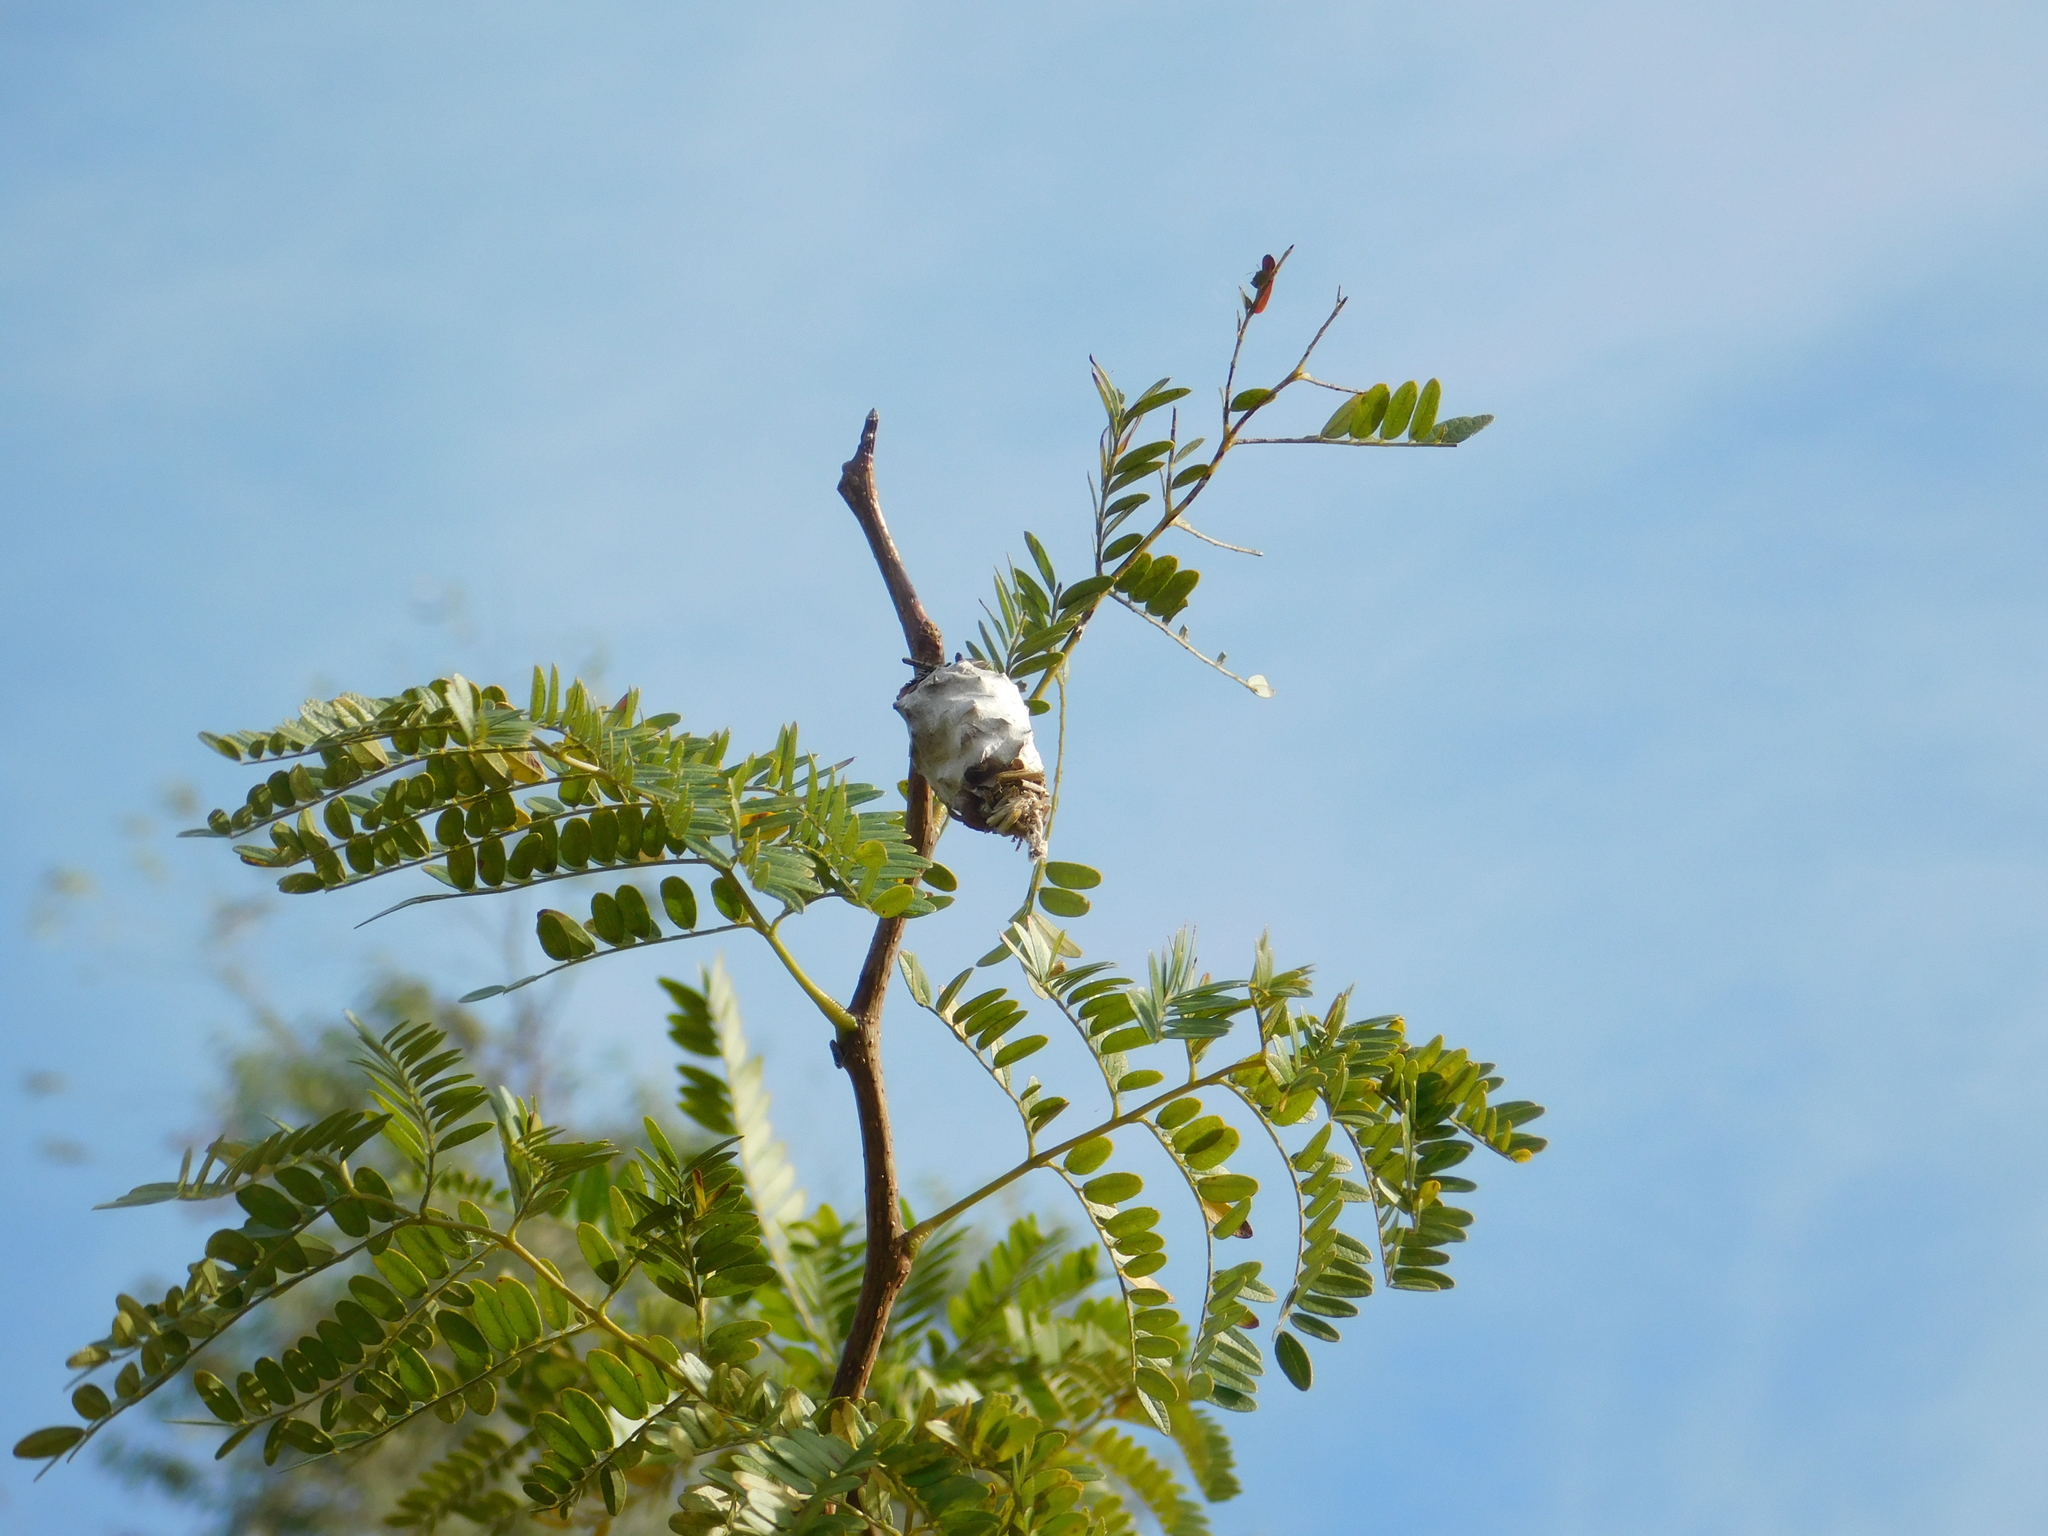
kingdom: Animalia
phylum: Arthropoda
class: Insecta
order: Lepidoptera
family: Psychidae
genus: Oiketicus
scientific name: Oiketicus
